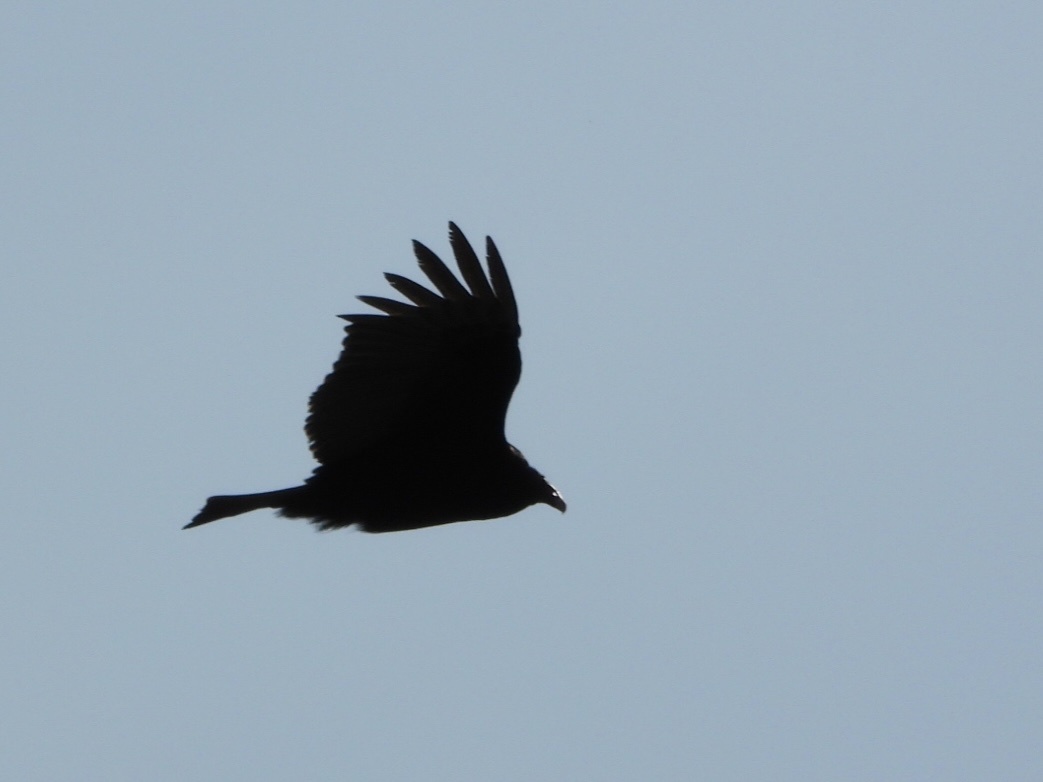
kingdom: Animalia
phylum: Chordata
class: Aves
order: Accipitriformes
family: Cathartidae
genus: Cathartes
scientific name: Cathartes aura
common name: Turkey vulture
